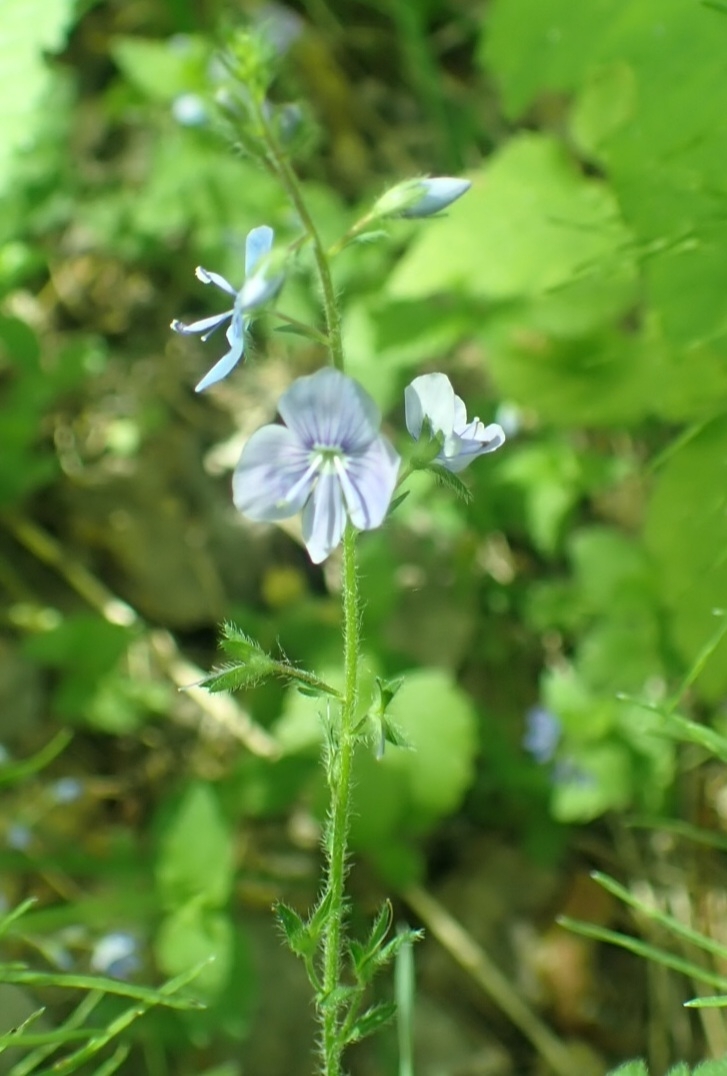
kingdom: Plantae
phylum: Tracheophyta
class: Magnoliopsida
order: Lamiales
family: Plantaginaceae
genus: Veronica
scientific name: Veronica officinalis
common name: Common speedwell
